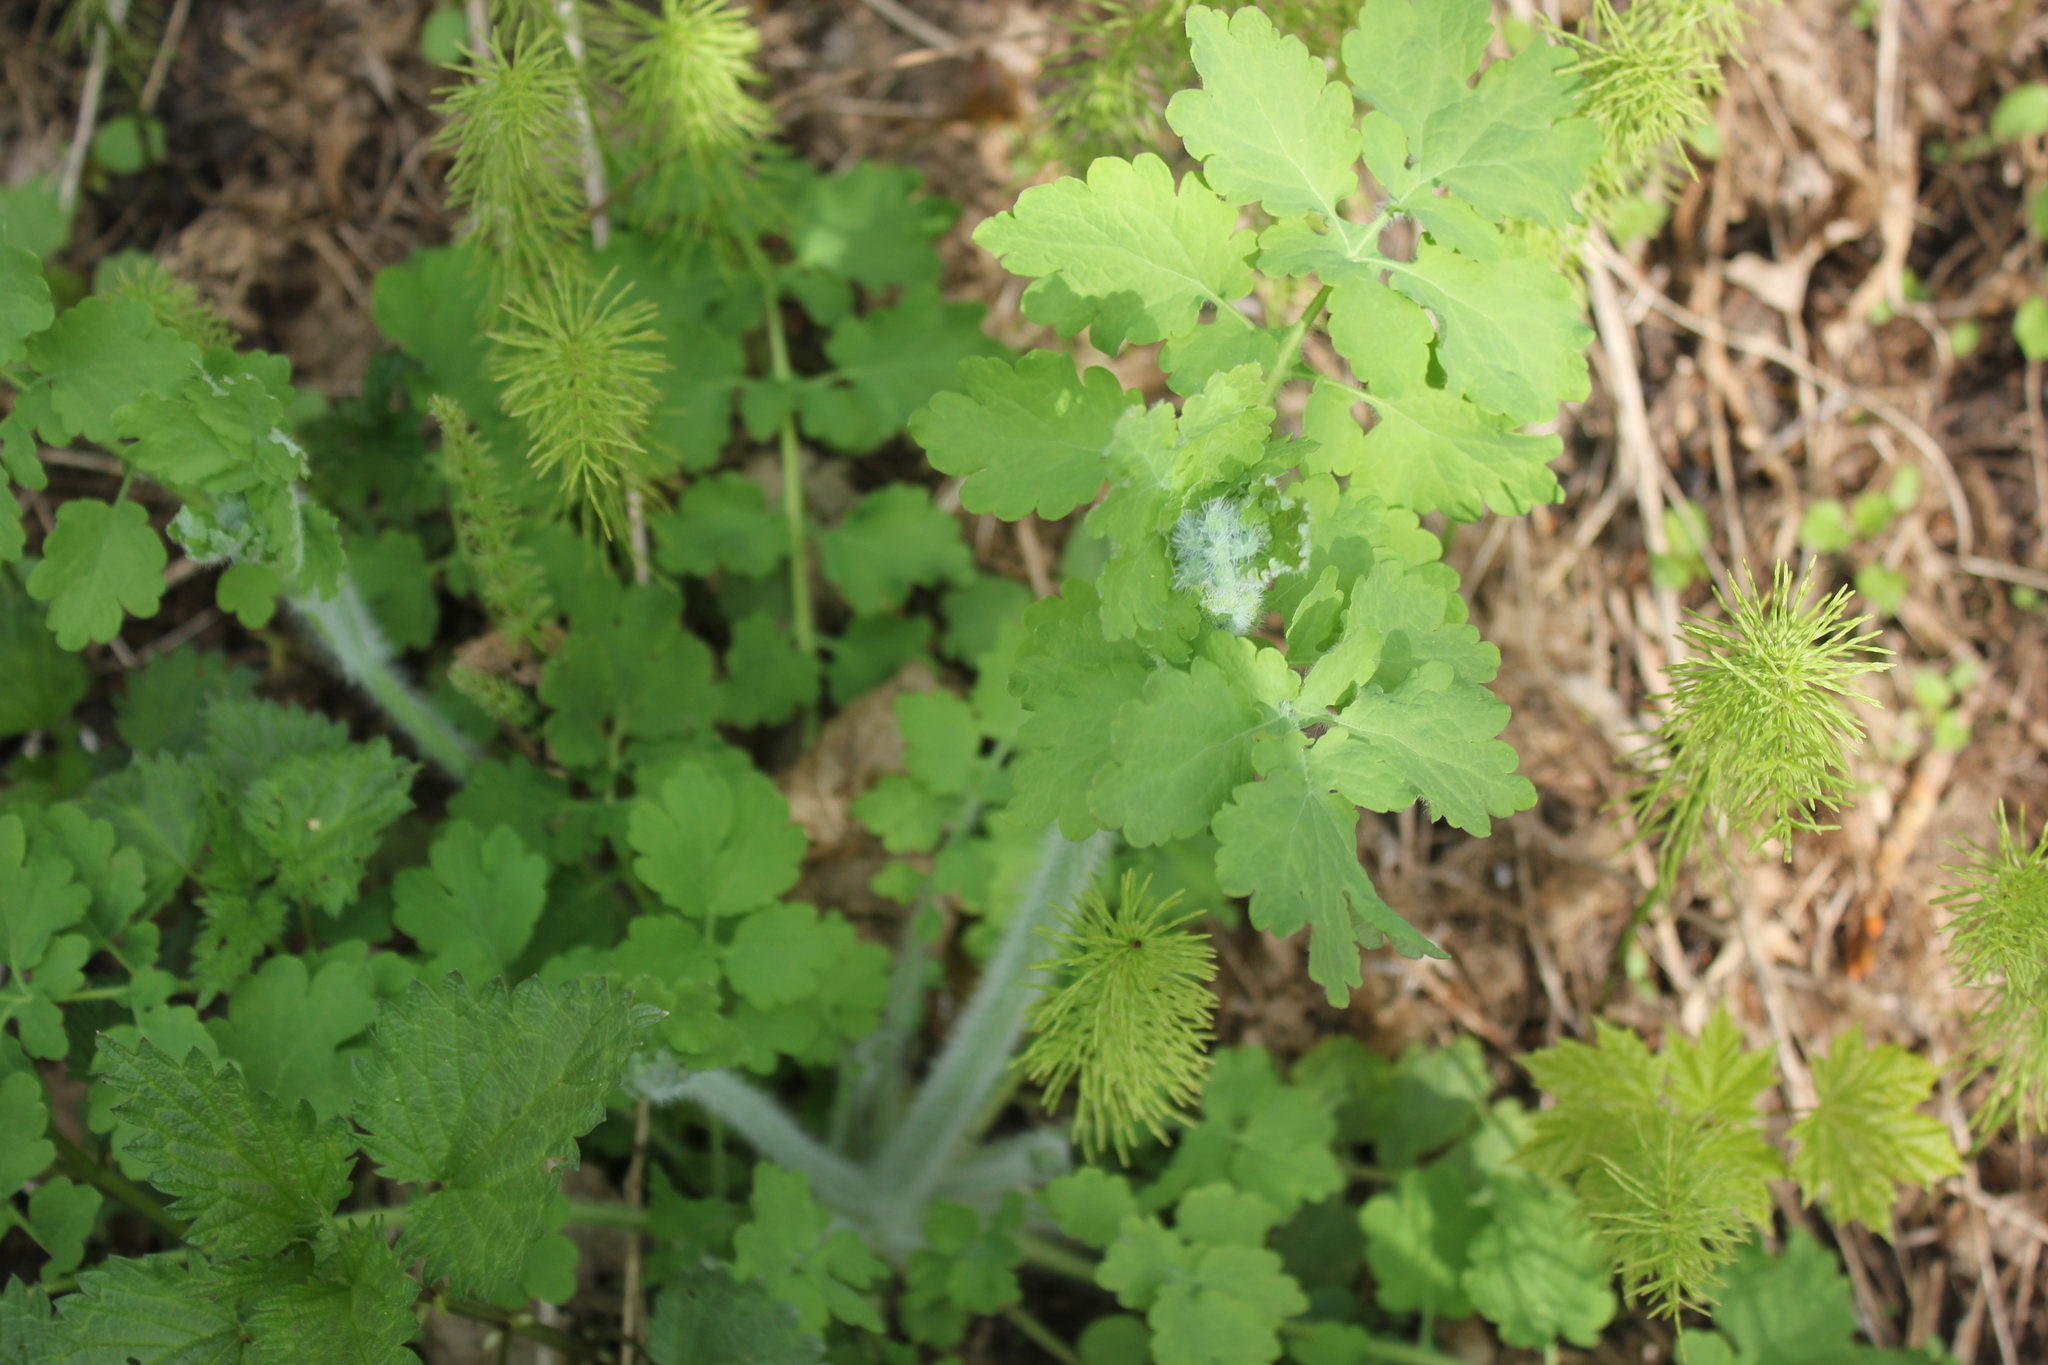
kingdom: Plantae
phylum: Tracheophyta
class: Magnoliopsida
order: Ranunculales
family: Papaveraceae
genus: Chelidonium
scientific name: Chelidonium majus
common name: Greater celandine
